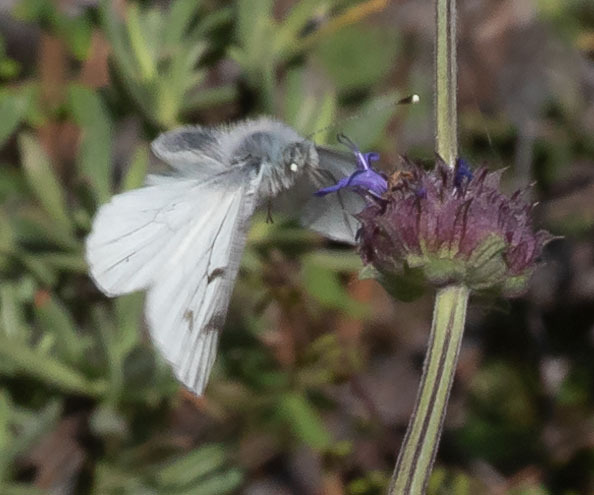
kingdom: Animalia
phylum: Arthropoda
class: Insecta
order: Lepidoptera
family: Pieridae
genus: Pontia
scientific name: Pontia sisymbrii
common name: California white
